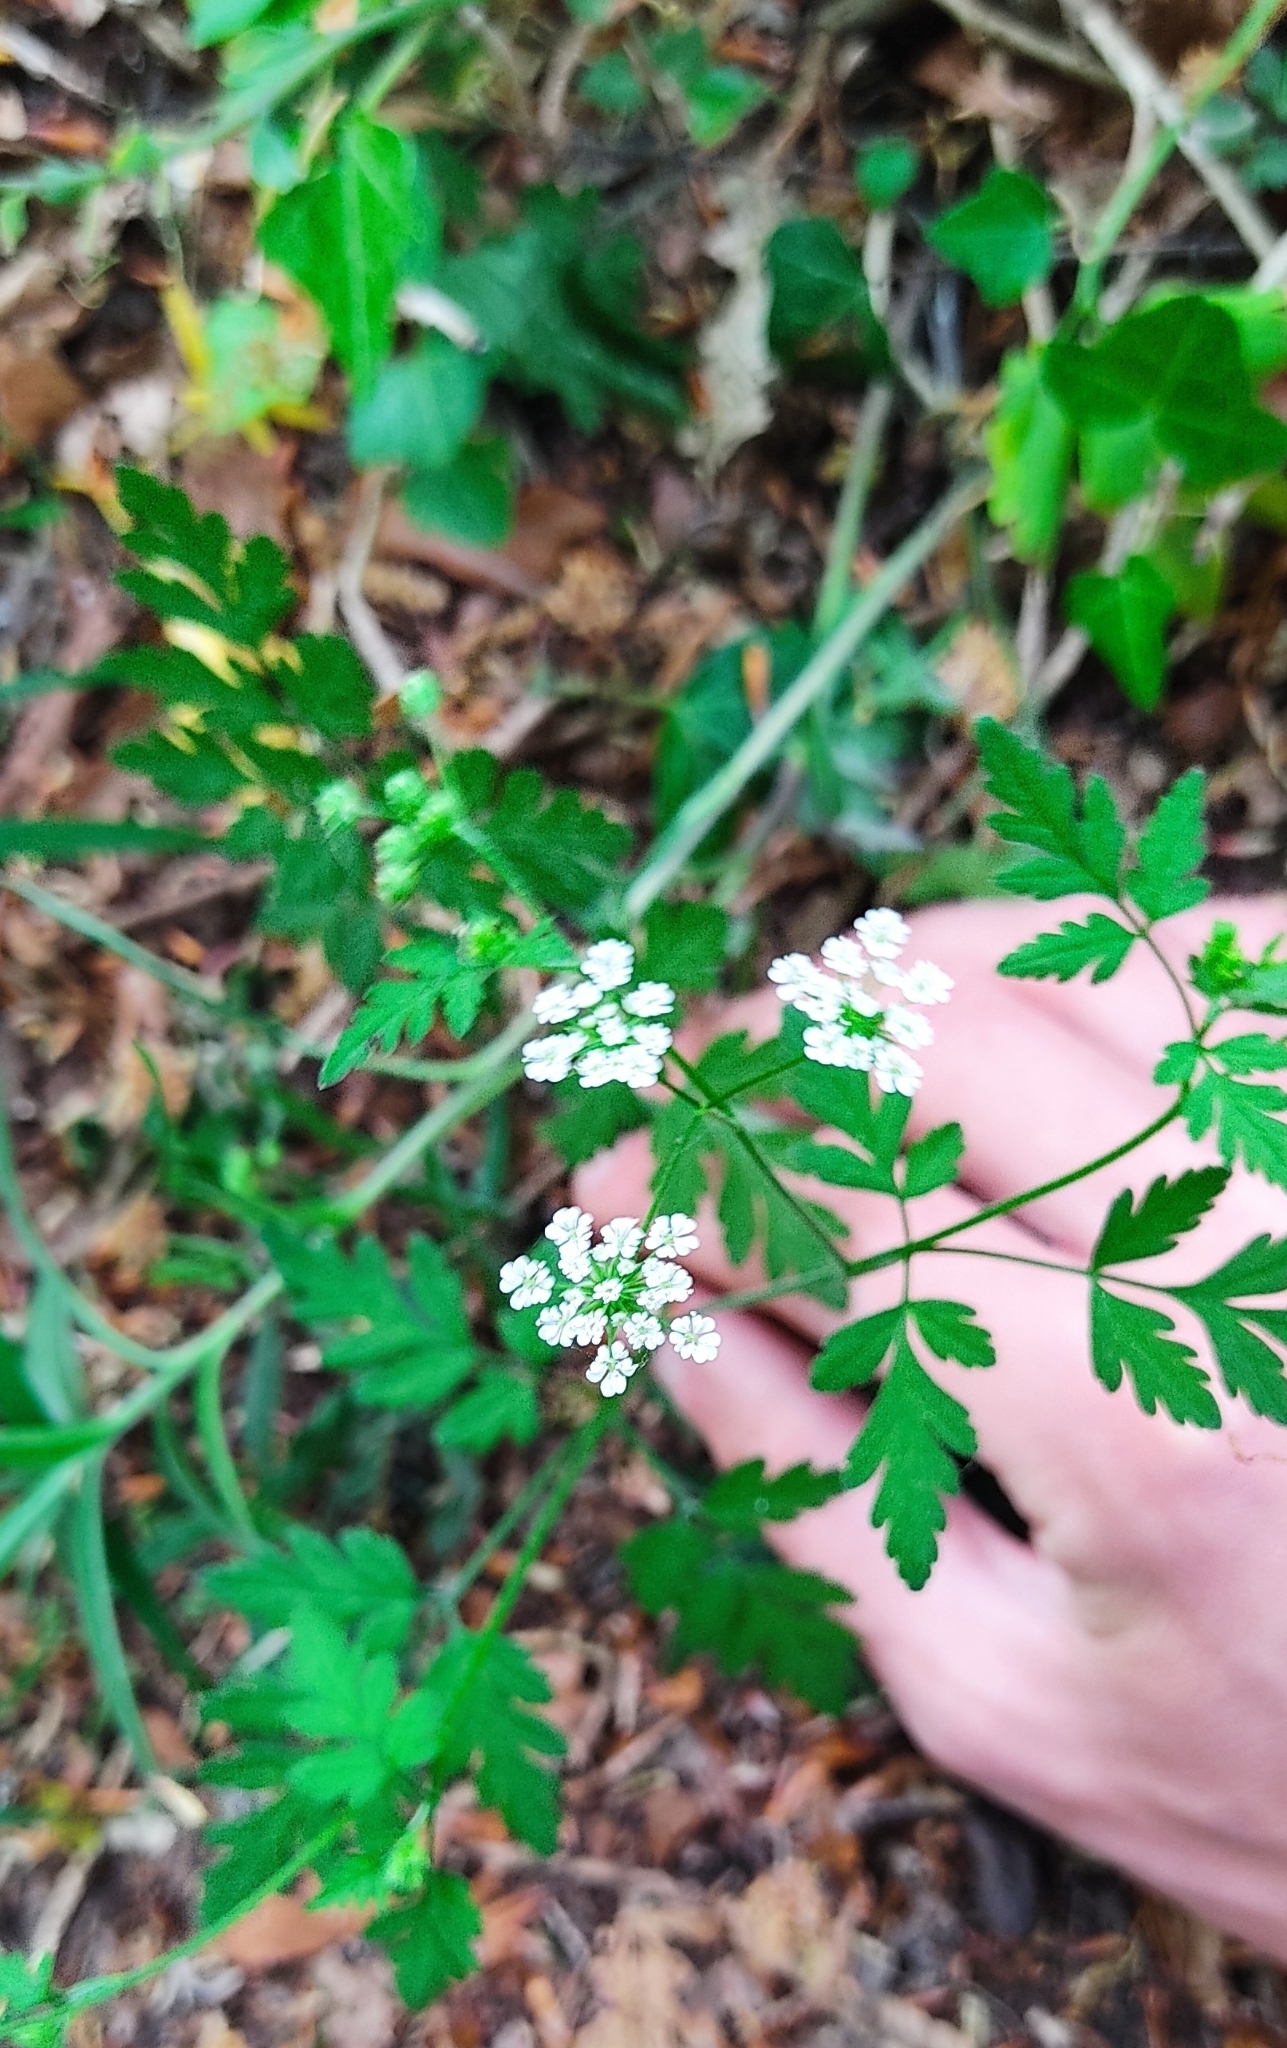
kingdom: Plantae
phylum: Tracheophyta
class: Magnoliopsida
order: Apiales
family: Apiaceae
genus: Chaerophyllum
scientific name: Chaerophyllum temulum
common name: Rough chervil
